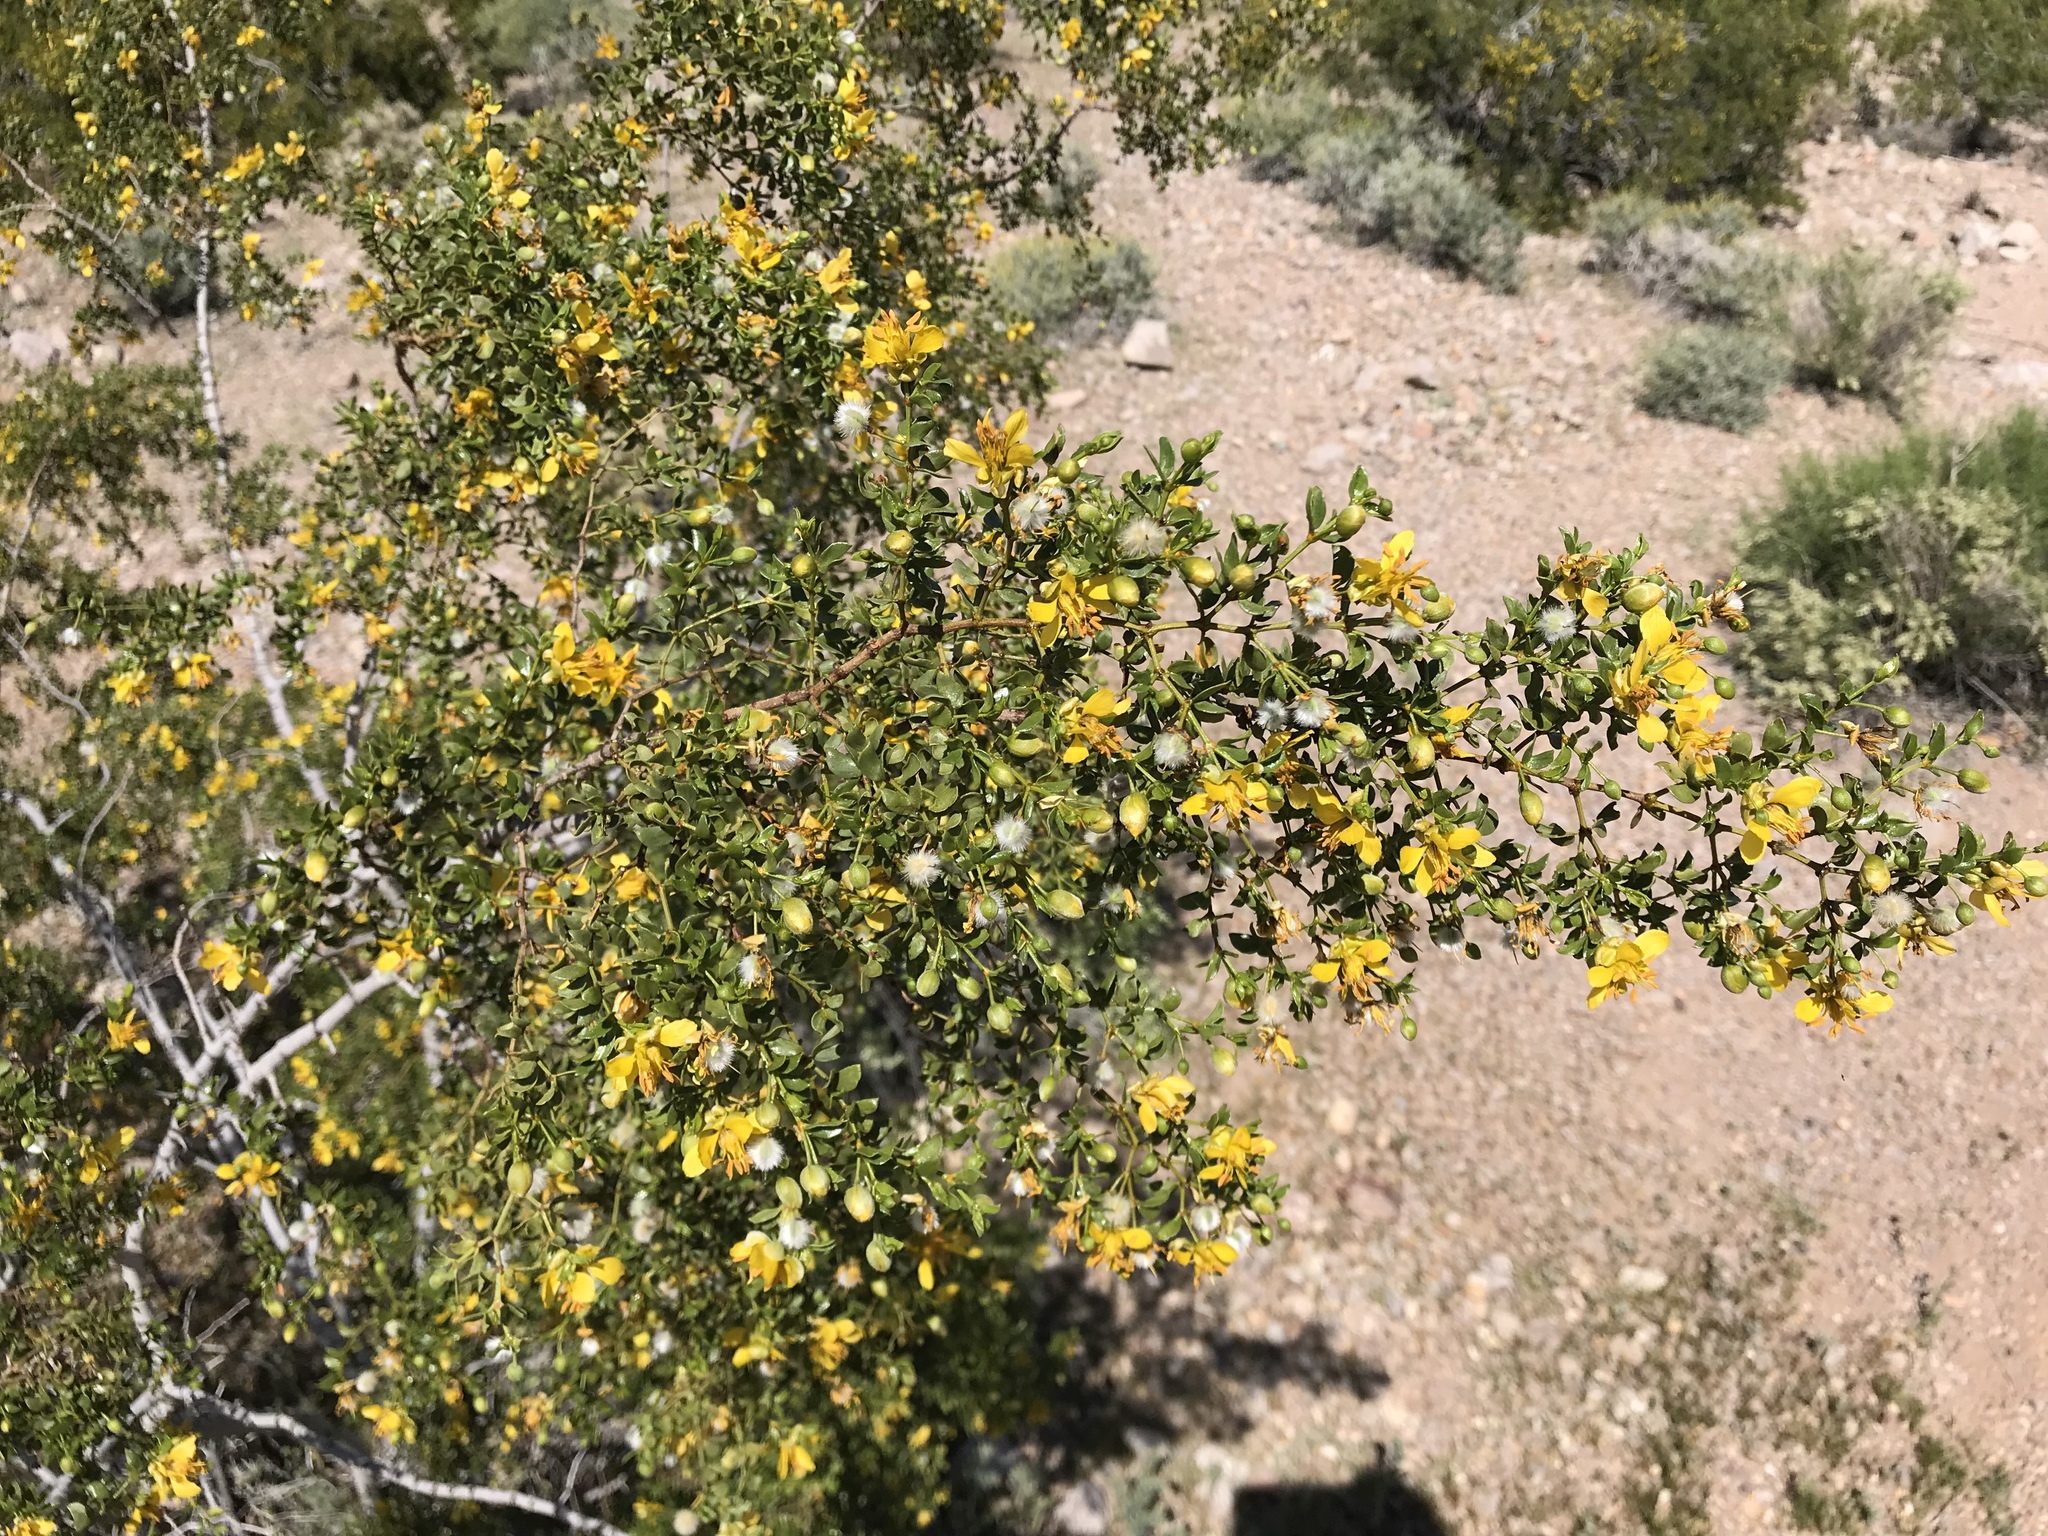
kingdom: Plantae
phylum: Tracheophyta
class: Magnoliopsida
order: Zygophyllales
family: Zygophyllaceae
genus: Larrea
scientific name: Larrea tridentata
